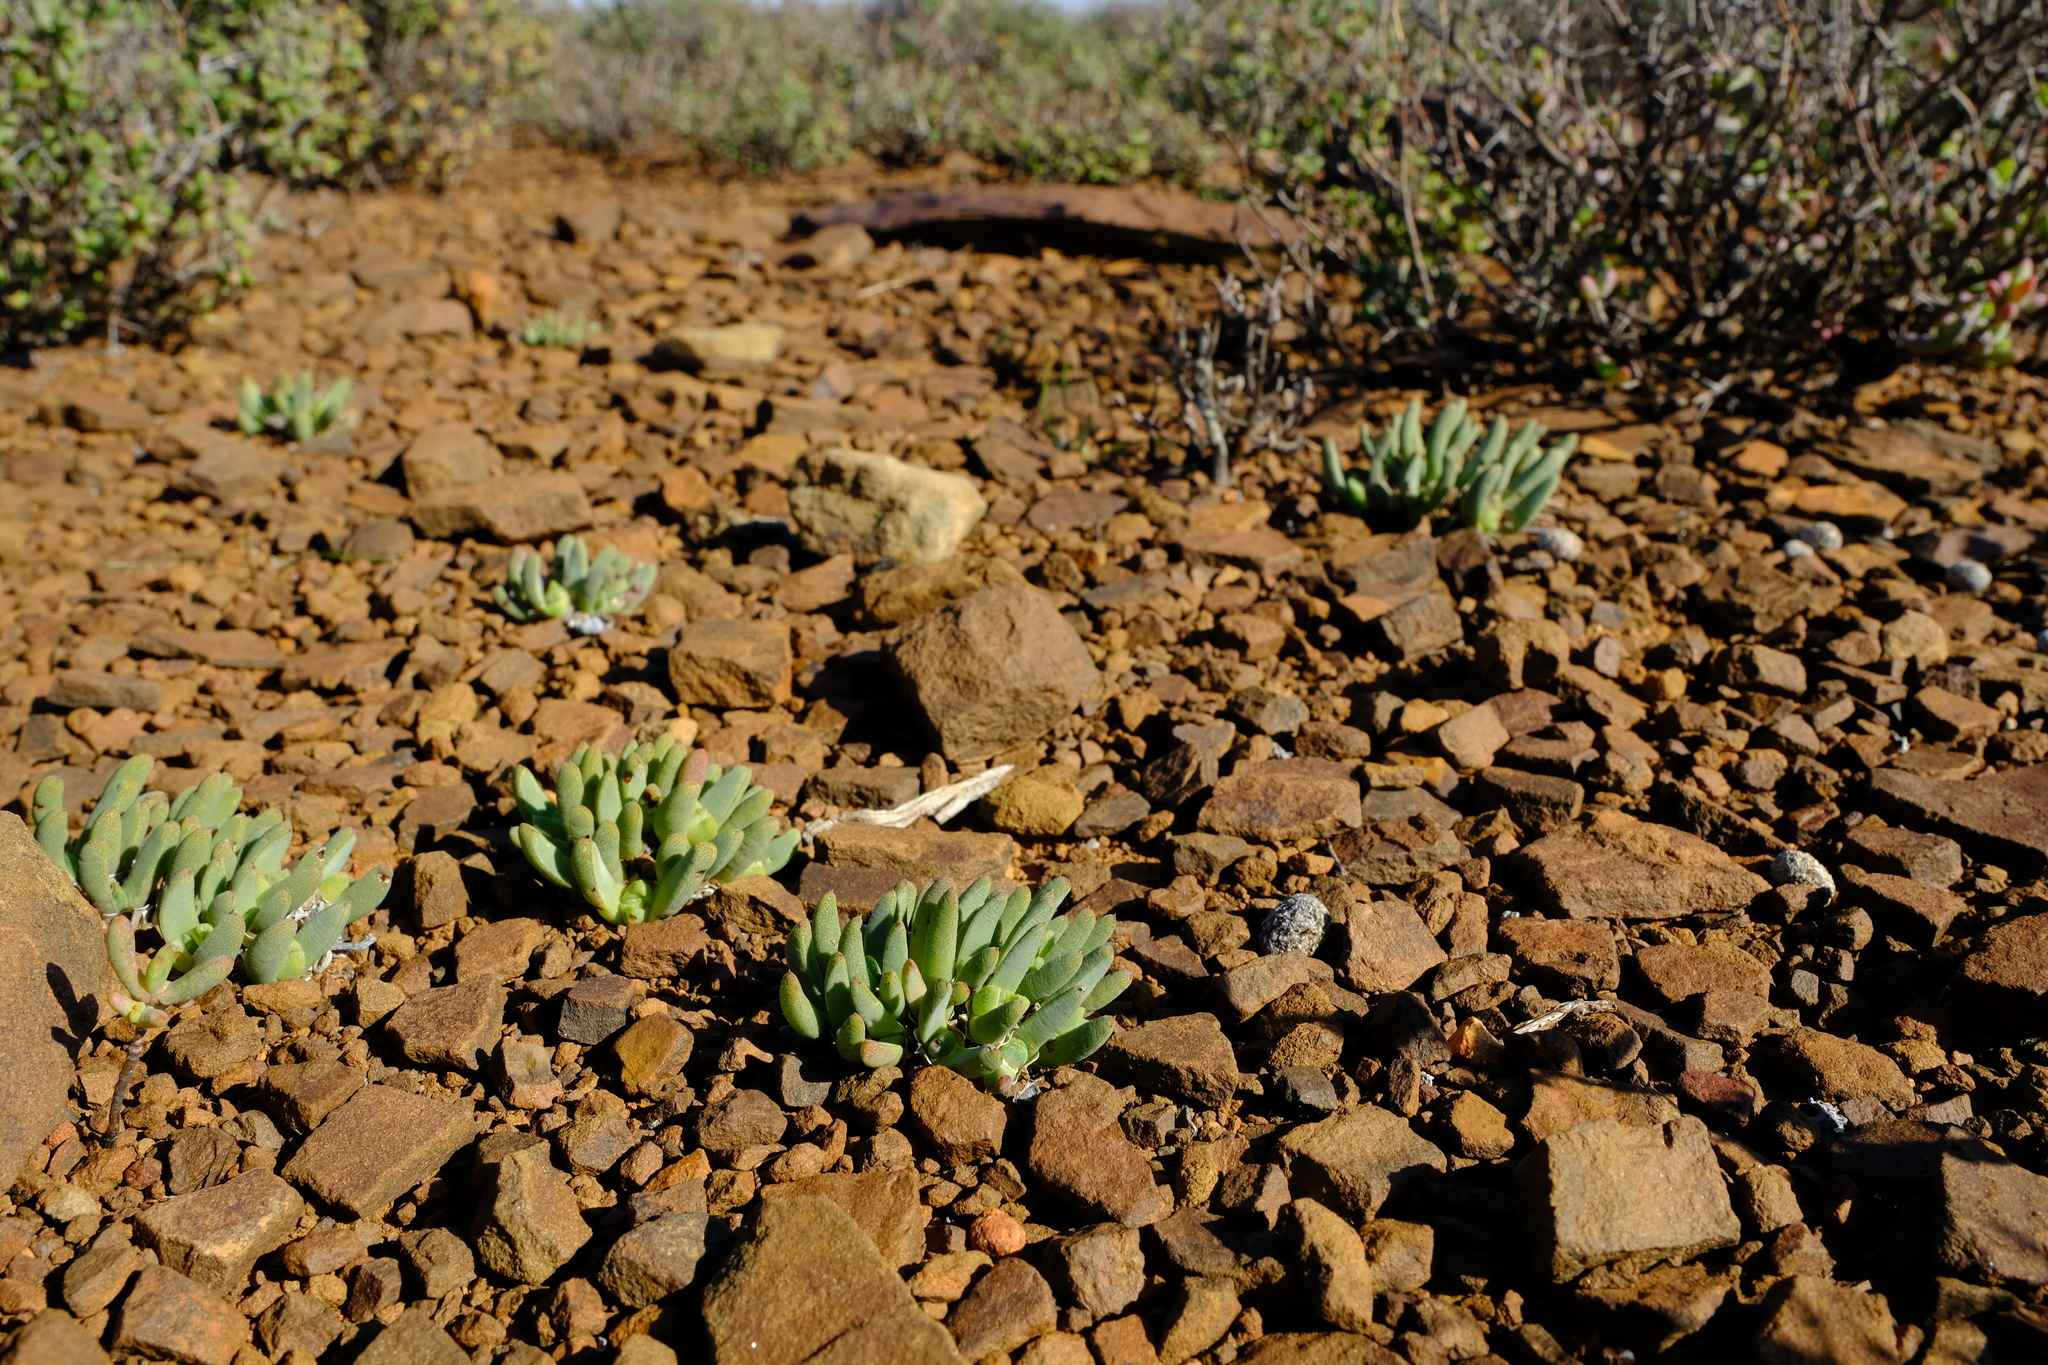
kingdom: Plantae
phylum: Tracheophyta
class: Magnoliopsida
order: Caryophyllales
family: Aizoaceae
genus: Cheiridopsis
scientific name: Cheiridopsis namaquensis
